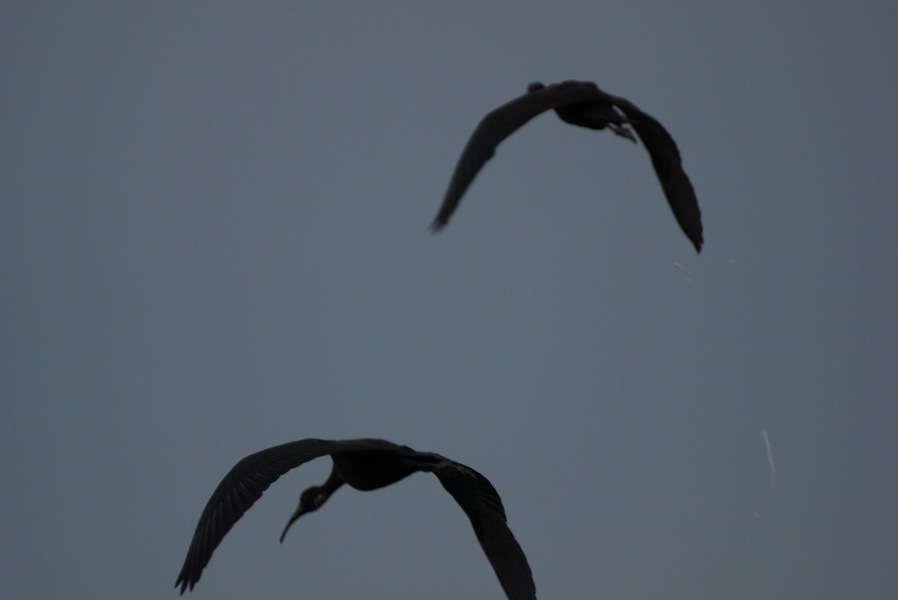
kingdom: Animalia
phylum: Chordata
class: Aves
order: Pelecaniformes
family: Threskiornithidae
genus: Plegadis
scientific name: Plegadis falcinellus
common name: Glossy ibis
